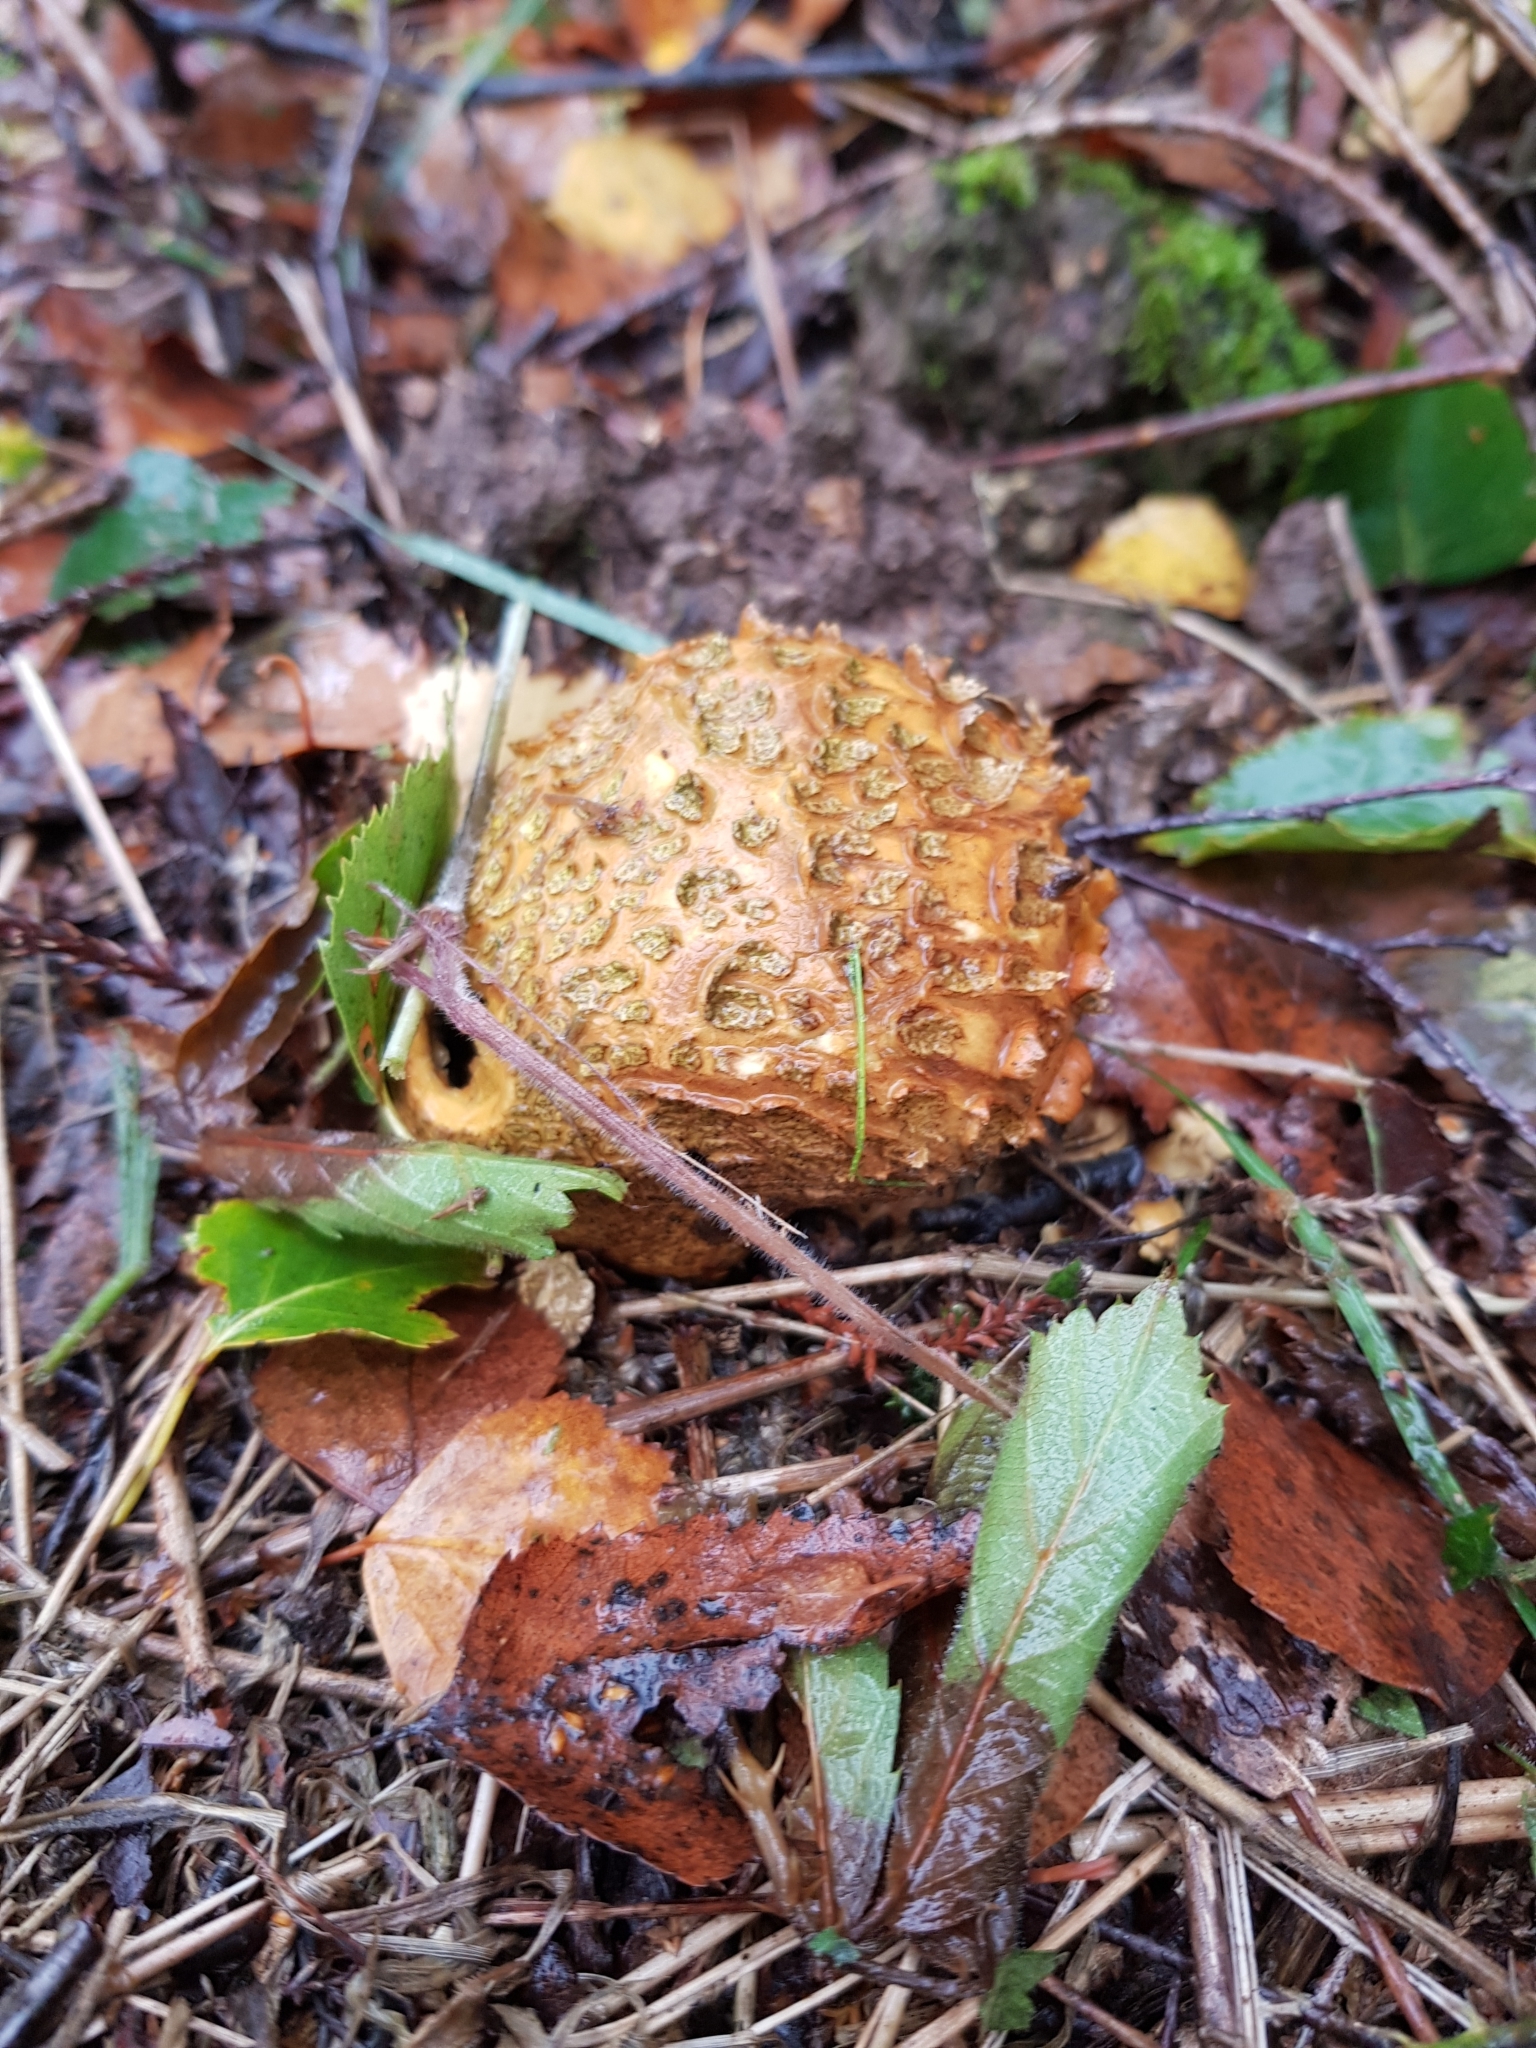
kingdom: Fungi
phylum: Basidiomycota
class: Agaricomycetes
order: Boletales
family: Sclerodermataceae
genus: Scleroderma
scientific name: Scleroderma citrinum
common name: Common earthball
